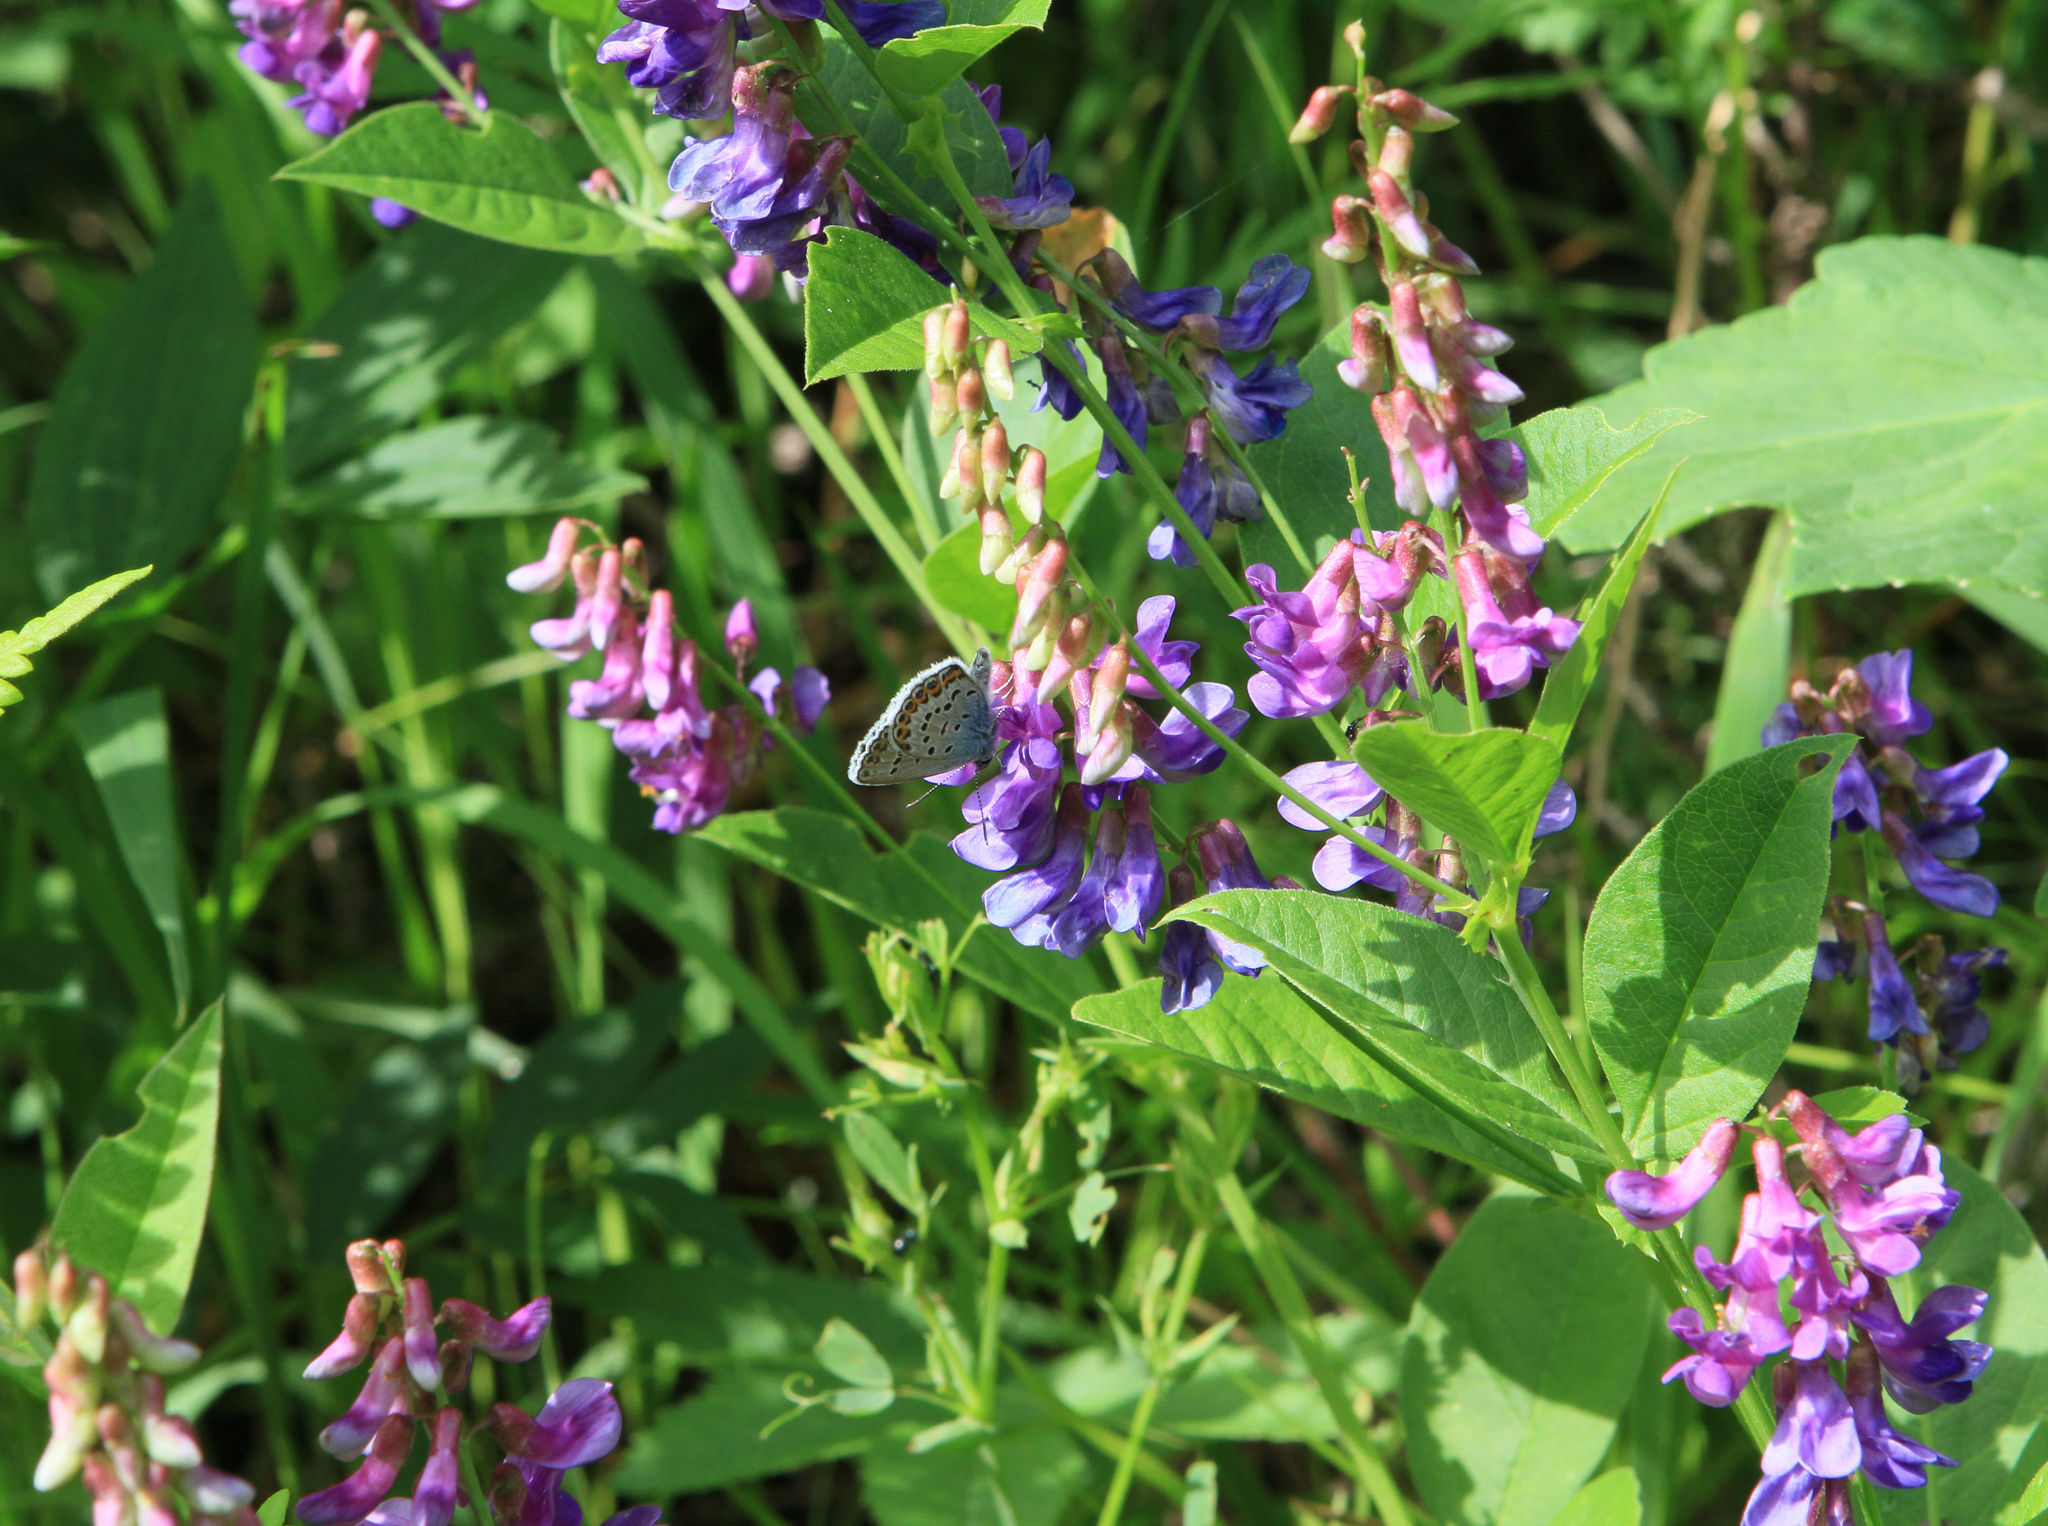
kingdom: Plantae
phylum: Tracheophyta
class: Magnoliopsida
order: Fabales
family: Fabaceae
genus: Vicia
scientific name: Vicia unijuga
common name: Two-leaf vetch
